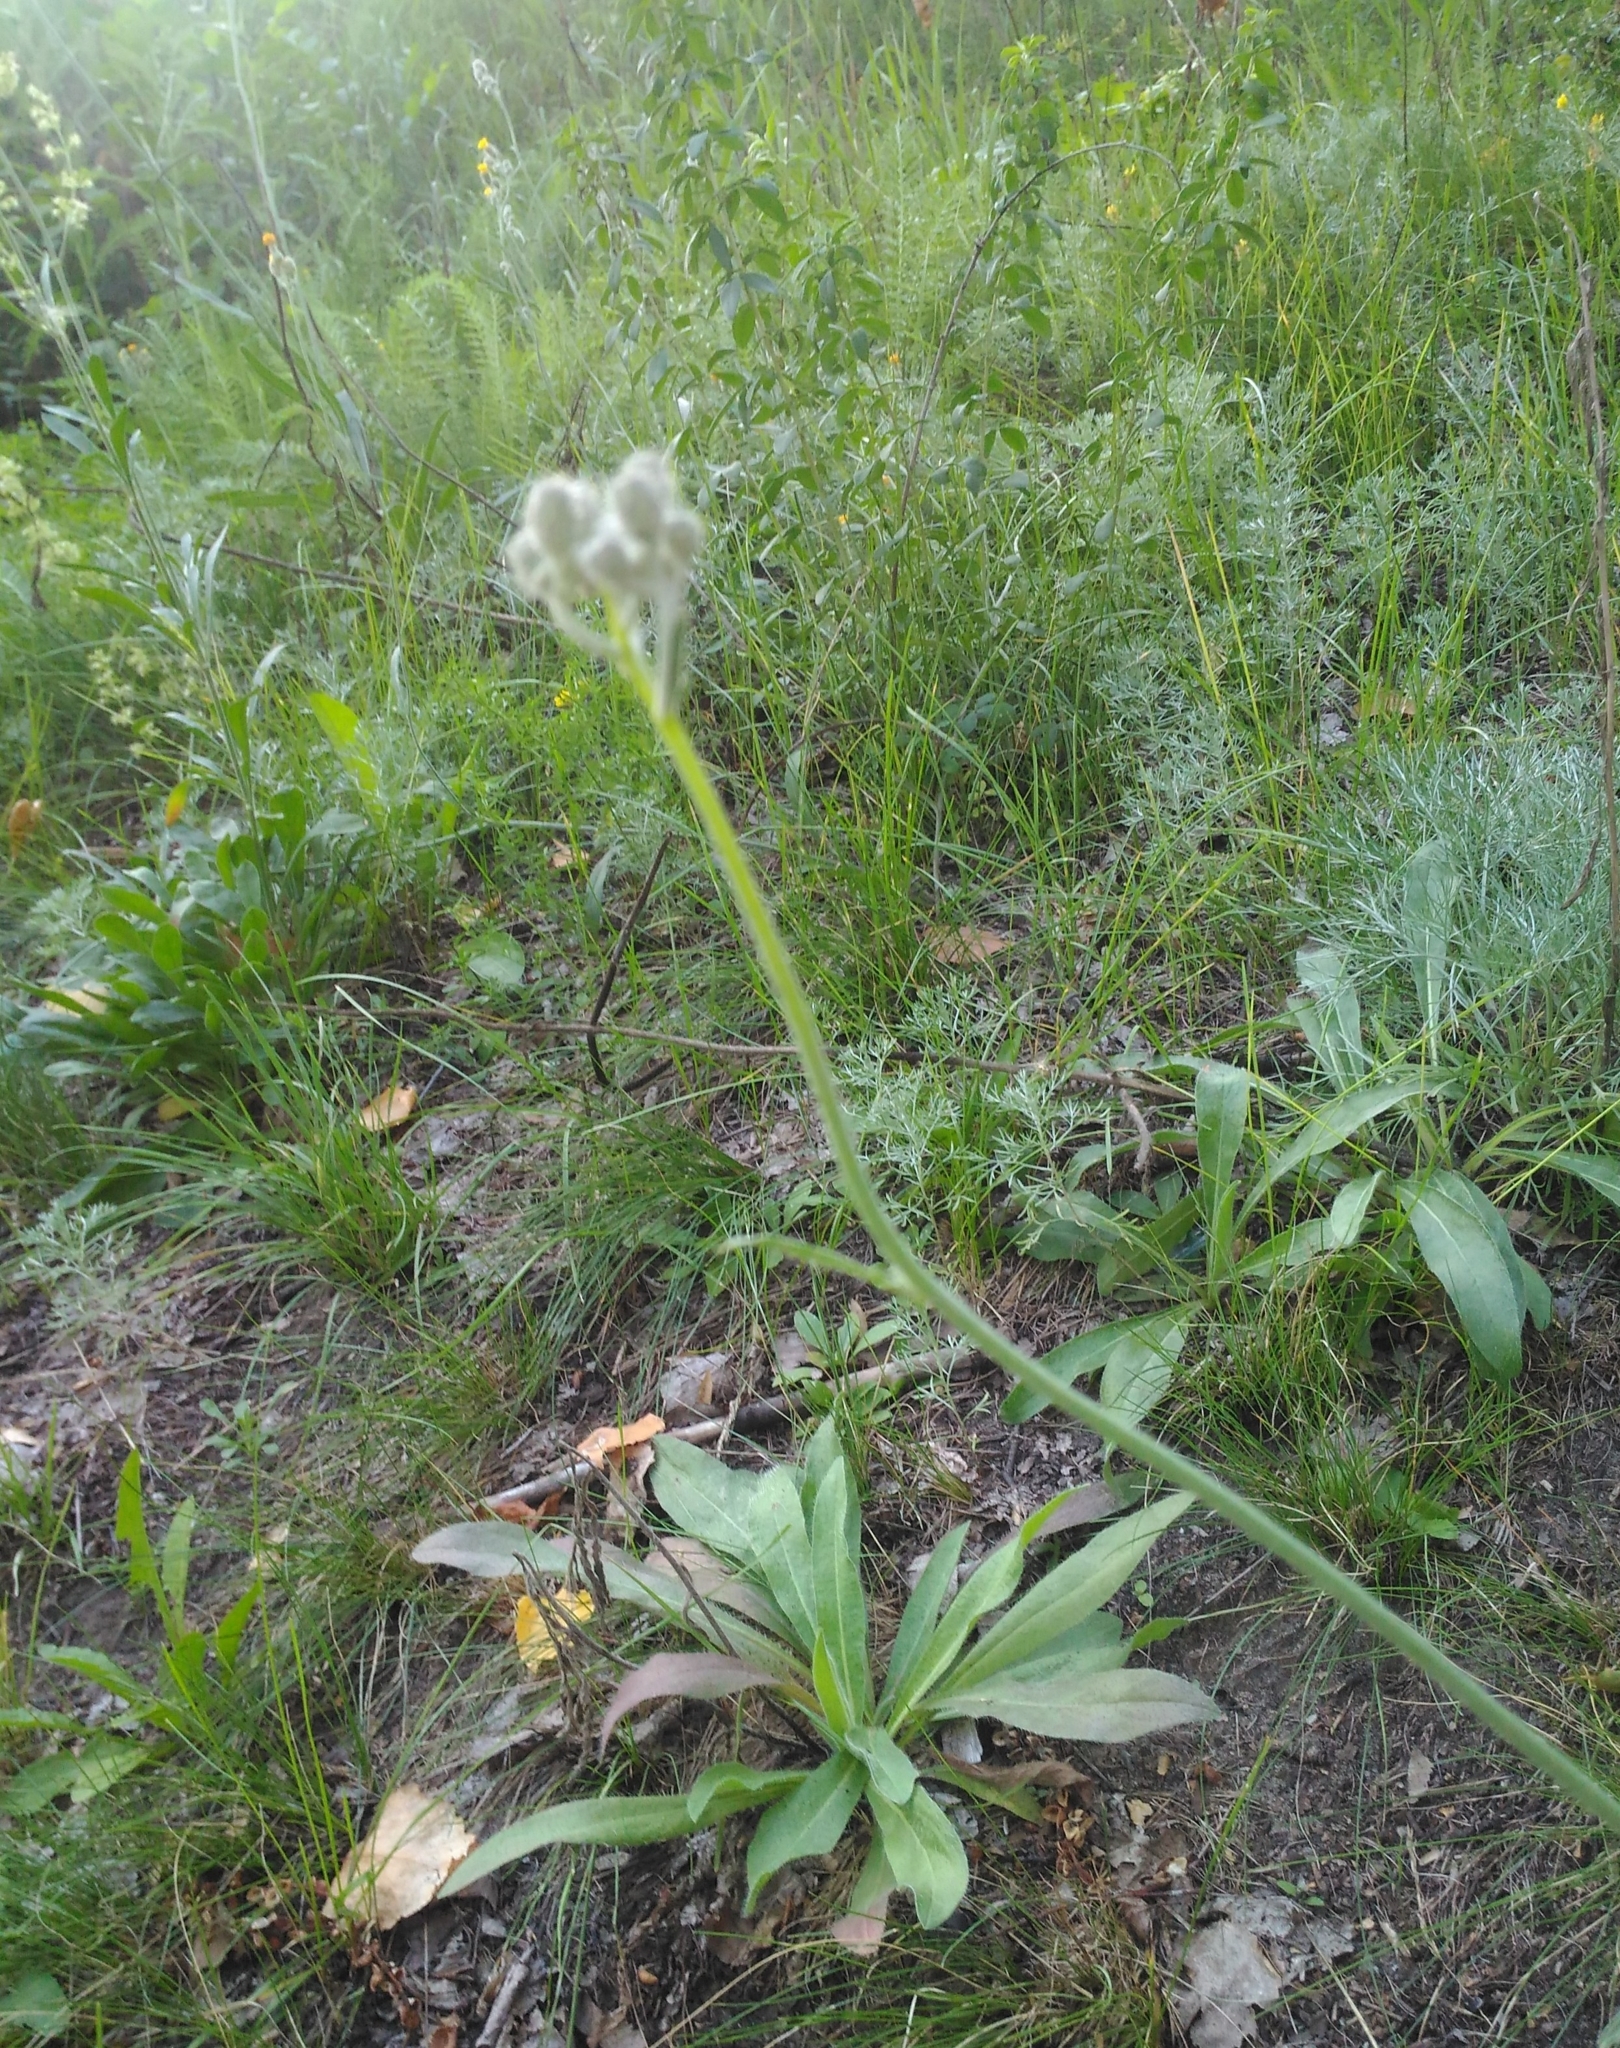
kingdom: Plantae
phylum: Tracheophyta
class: Magnoliopsida
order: Asterales
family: Asteraceae
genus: Pilosella
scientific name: Pilosella
